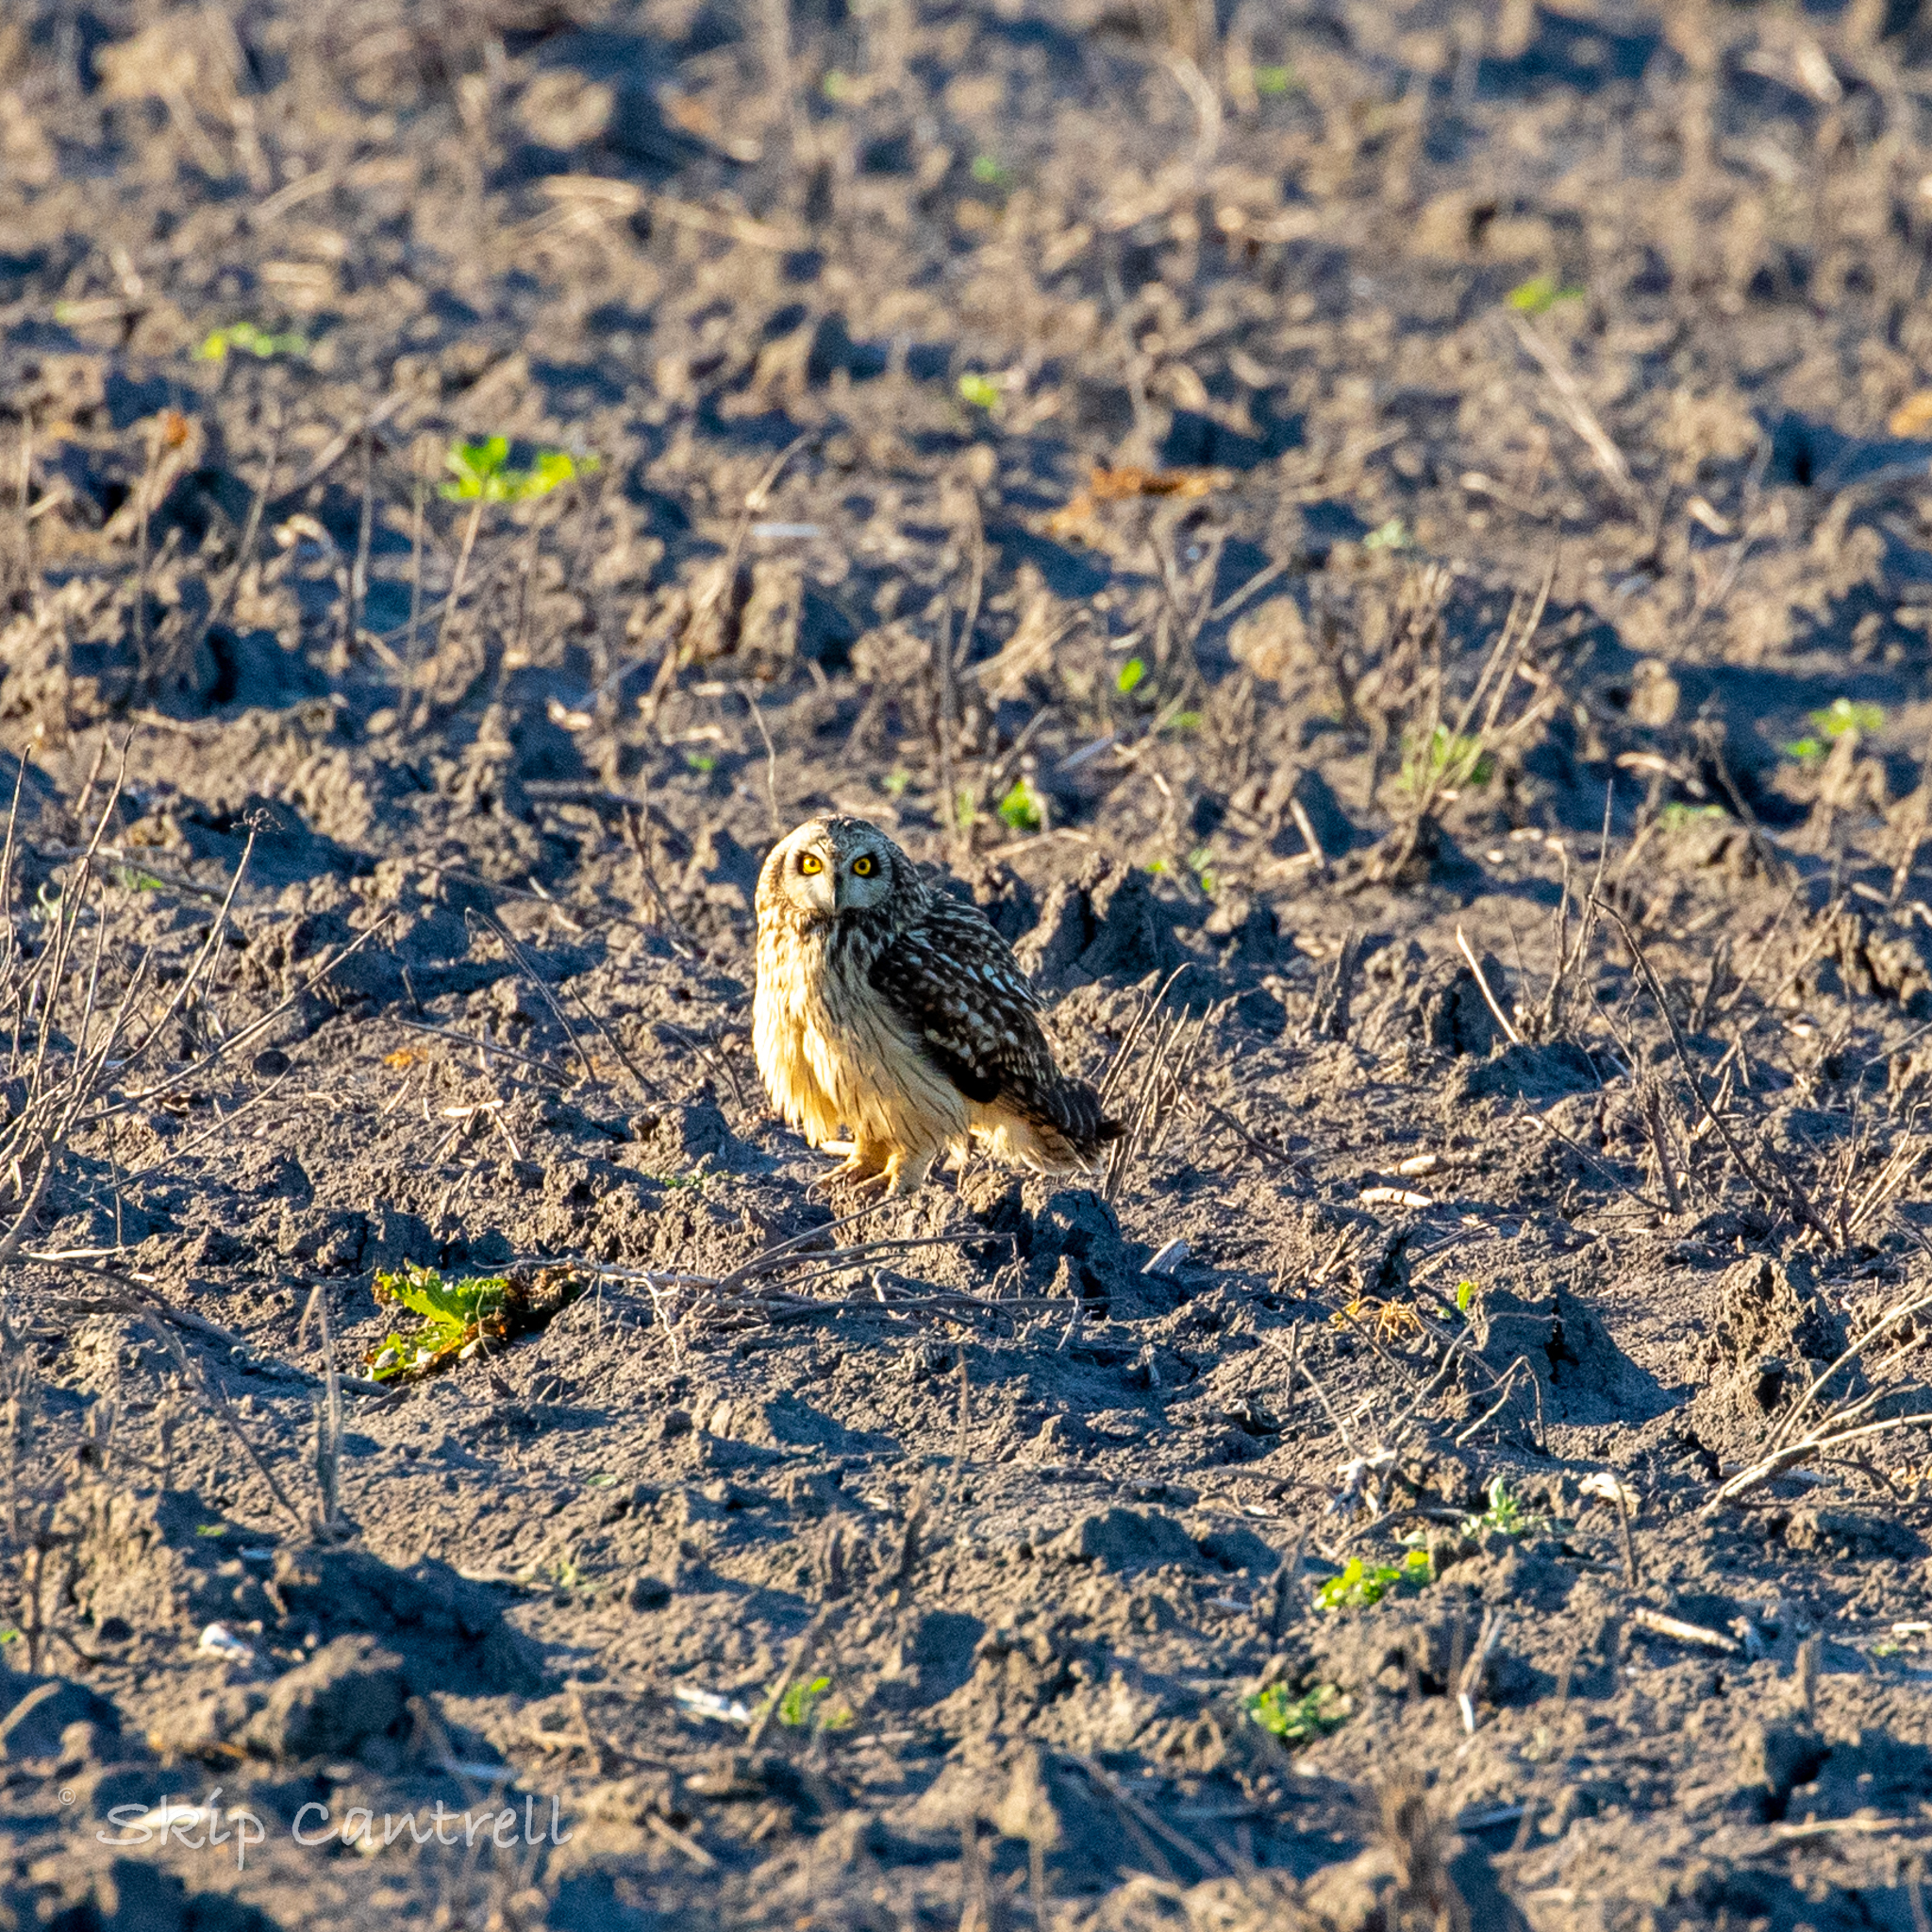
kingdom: Animalia
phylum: Chordata
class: Aves
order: Strigiformes
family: Strigidae
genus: Asio
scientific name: Asio flammeus
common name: Short-eared owl
